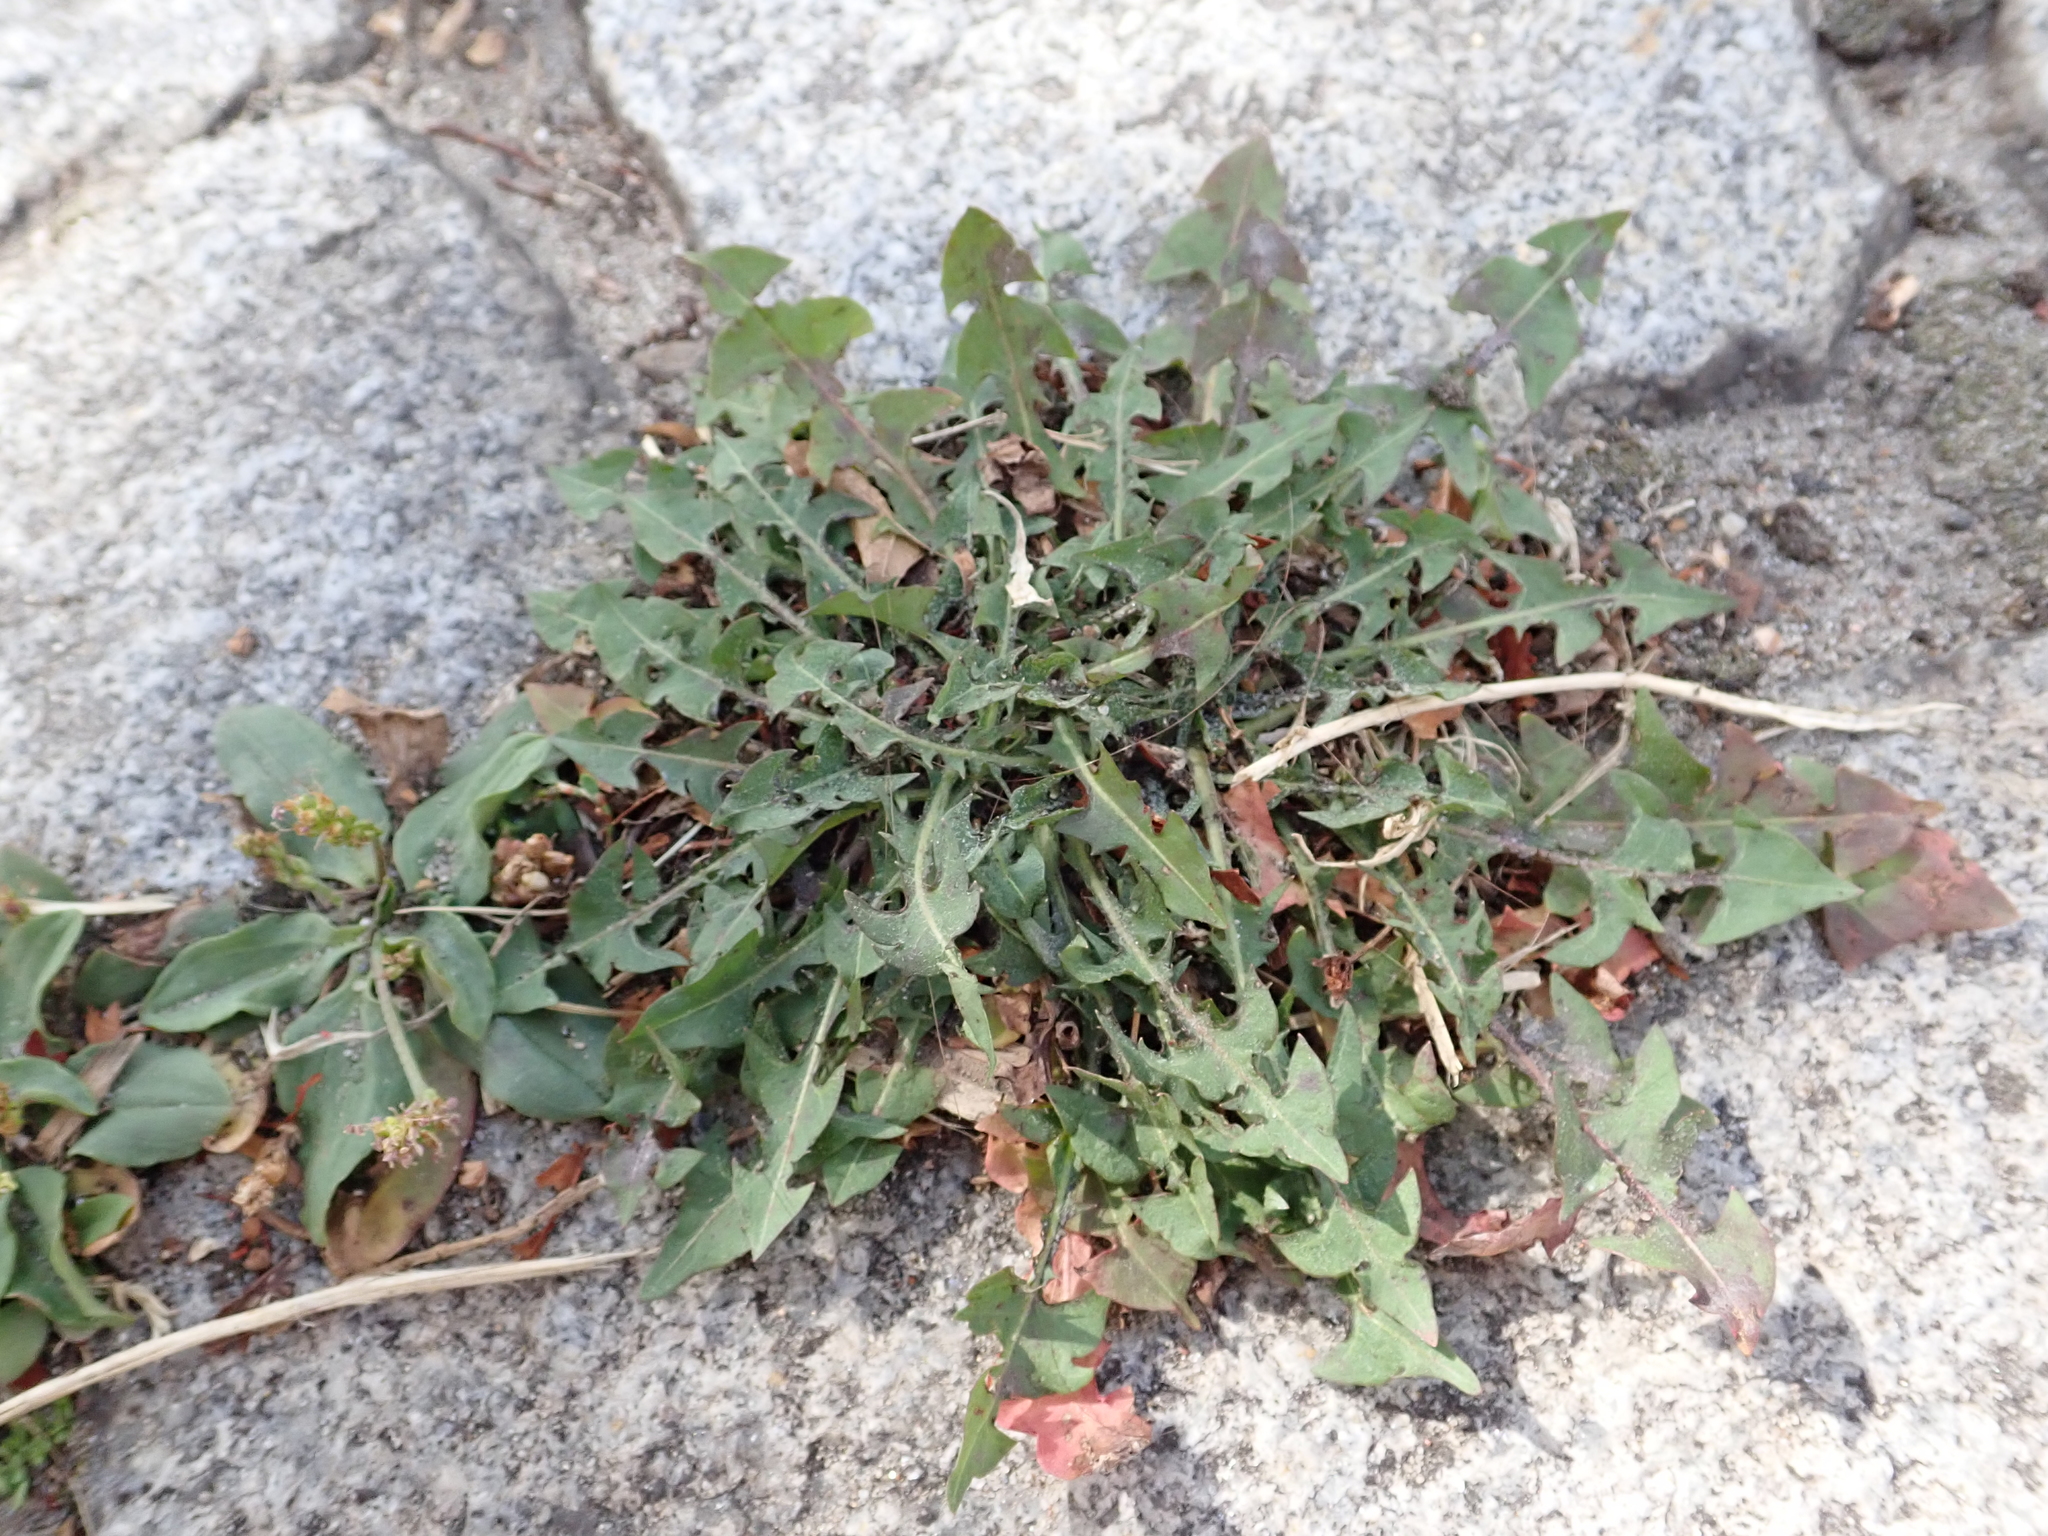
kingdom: Plantae
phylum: Tracheophyta
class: Magnoliopsida
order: Asterales
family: Asteraceae
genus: Taraxacum
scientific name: Taraxacum officinale
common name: Common dandelion
